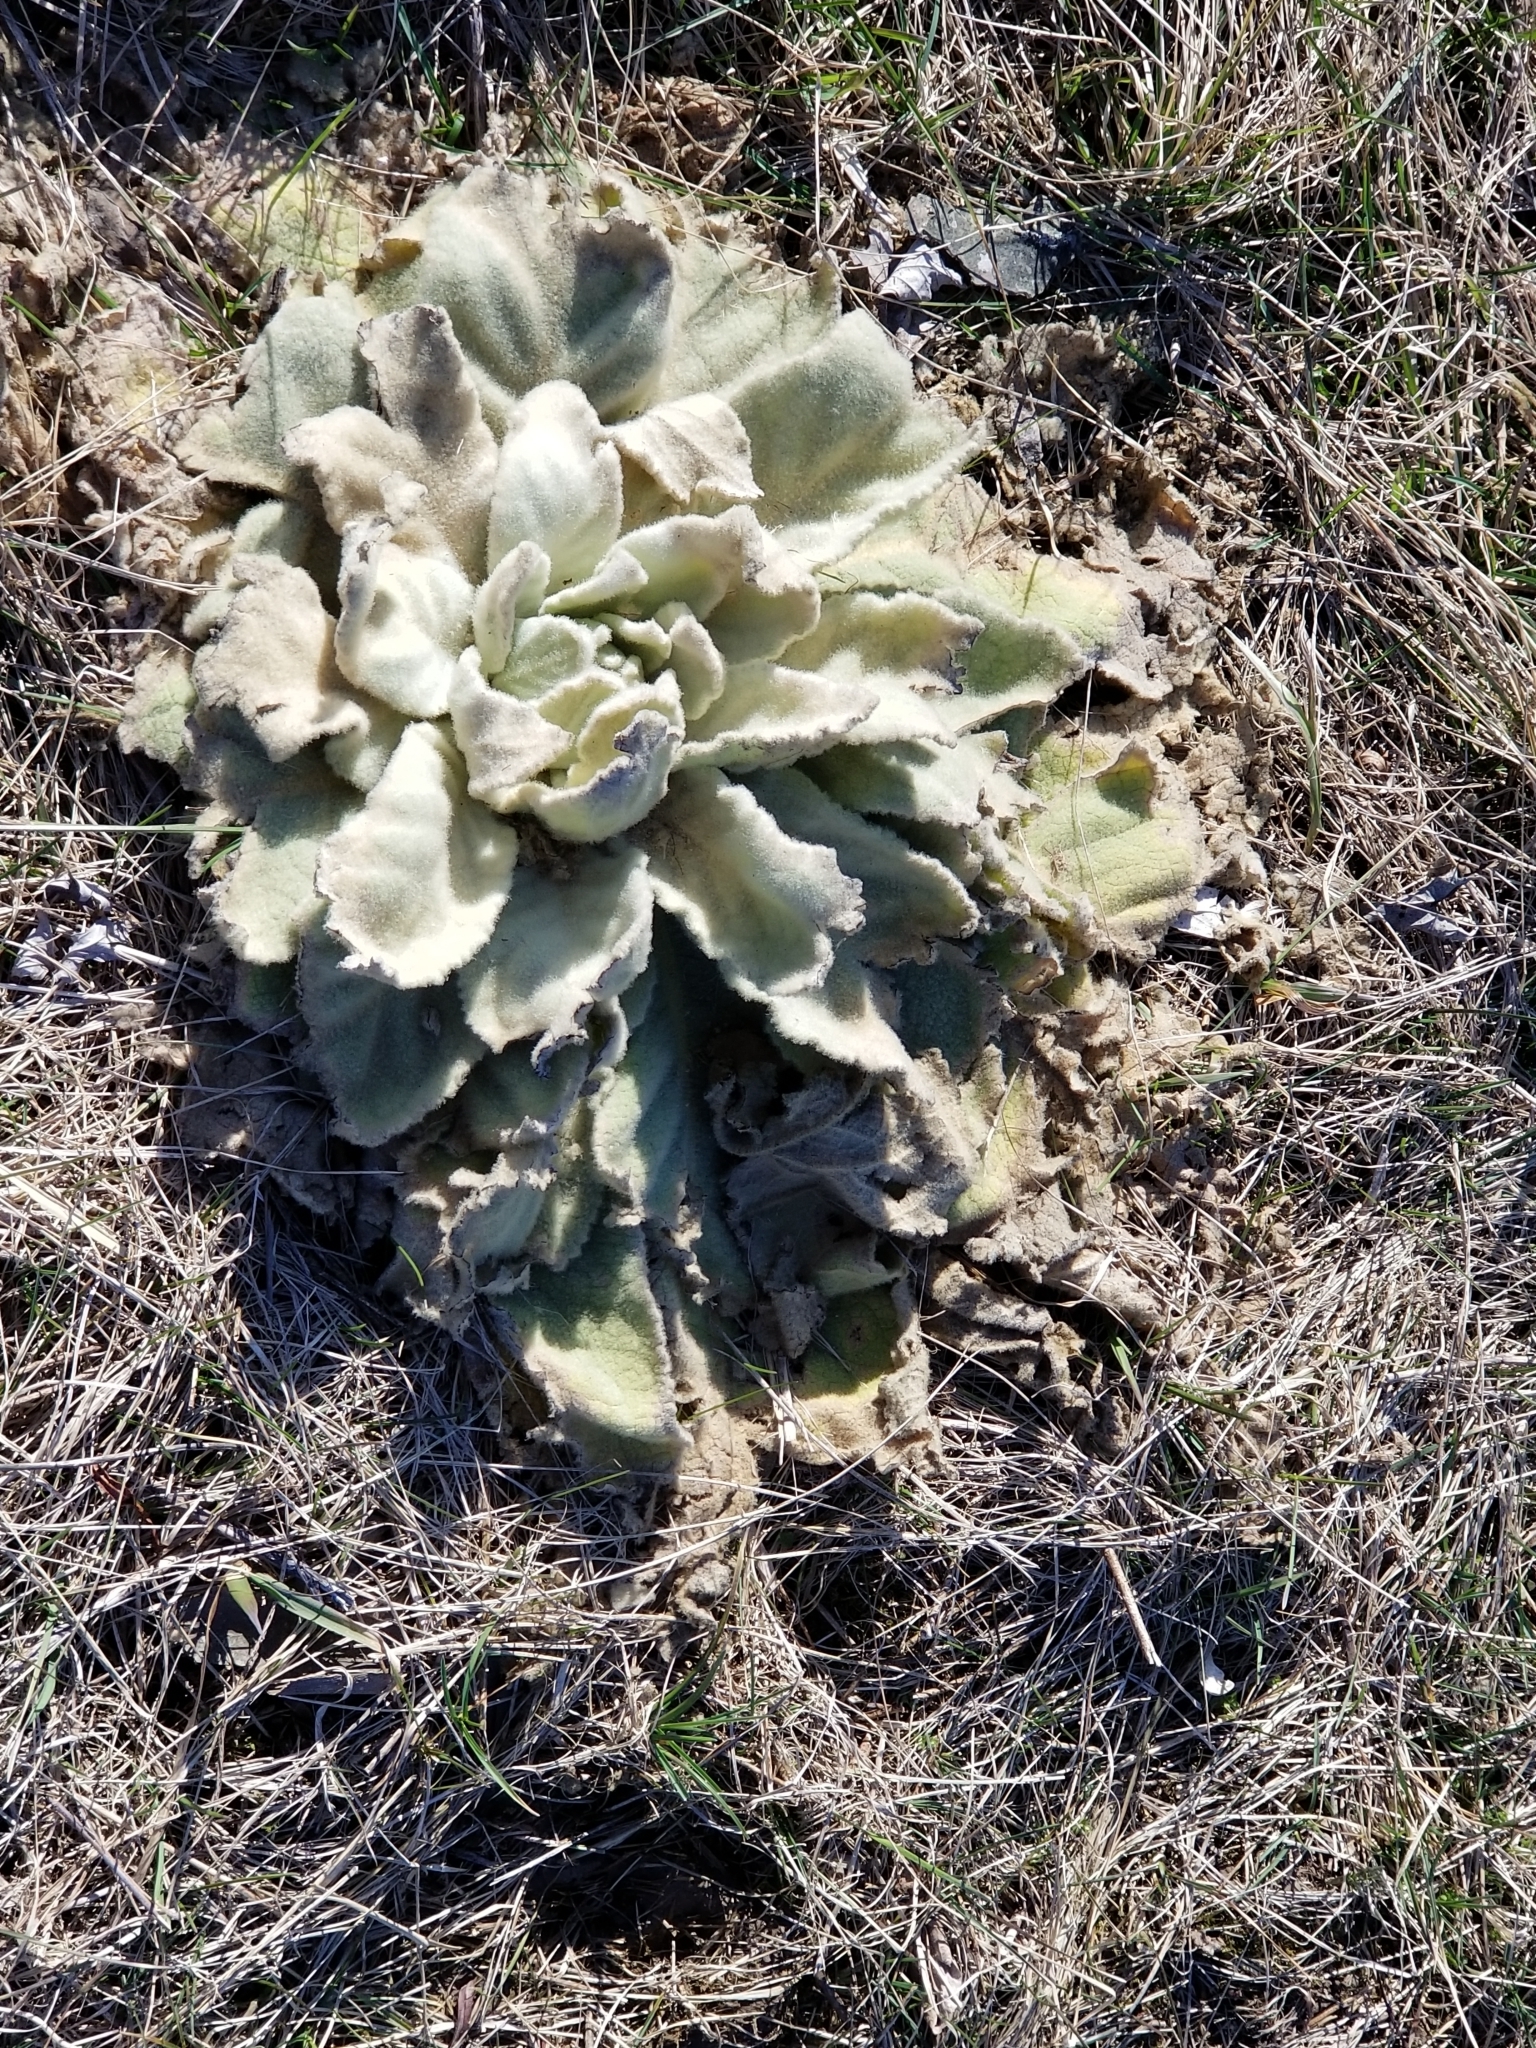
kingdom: Plantae
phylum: Tracheophyta
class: Magnoliopsida
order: Lamiales
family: Scrophulariaceae
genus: Verbascum
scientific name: Verbascum thapsus
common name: Common mullein
